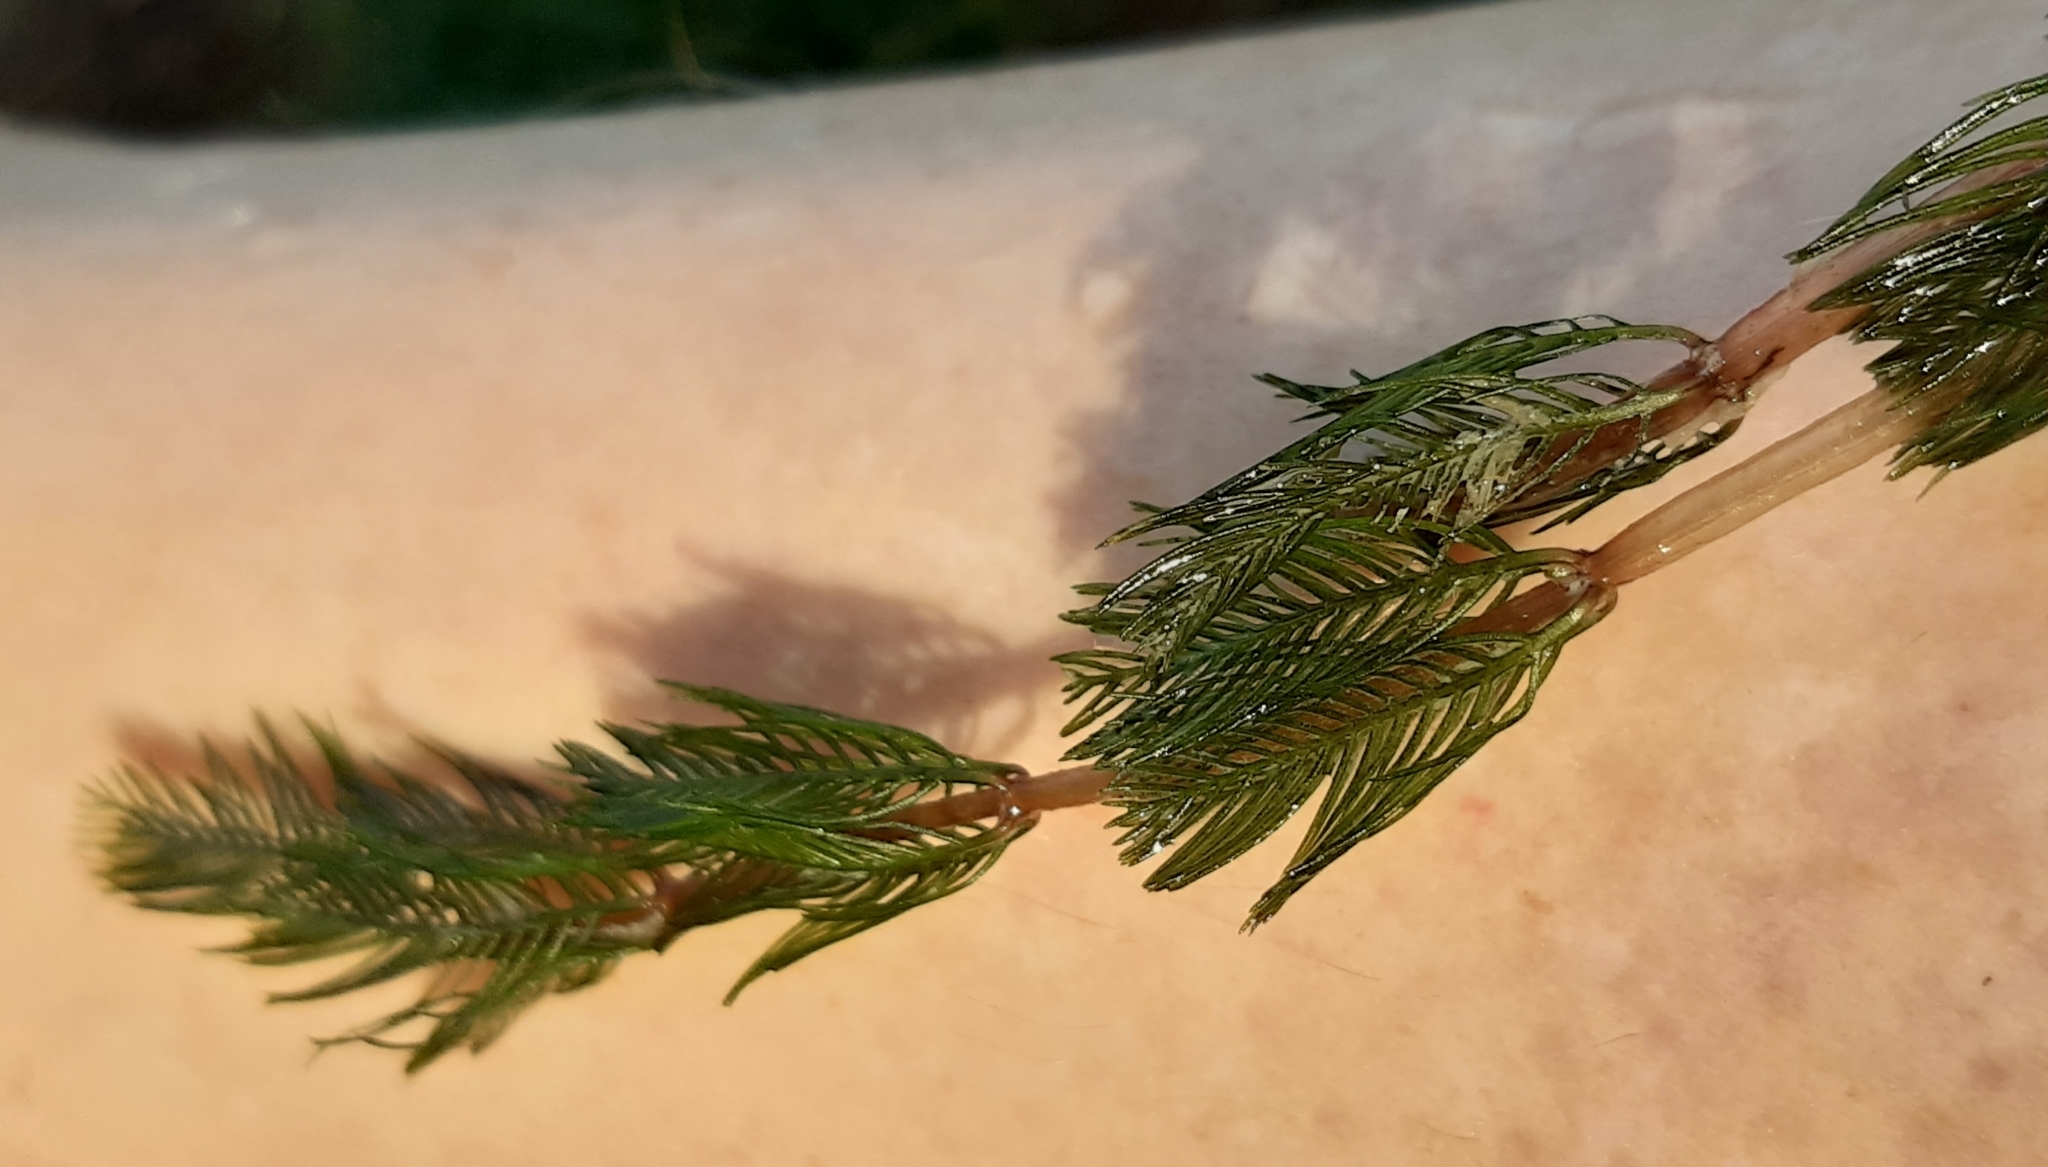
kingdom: Plantae
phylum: Tracheophyta
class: Magnoliopsida
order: Saxifragales
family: Haloragaceae
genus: Myriophyllum
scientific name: Myriophyllum spicatum
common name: Spiked water-milfoil
